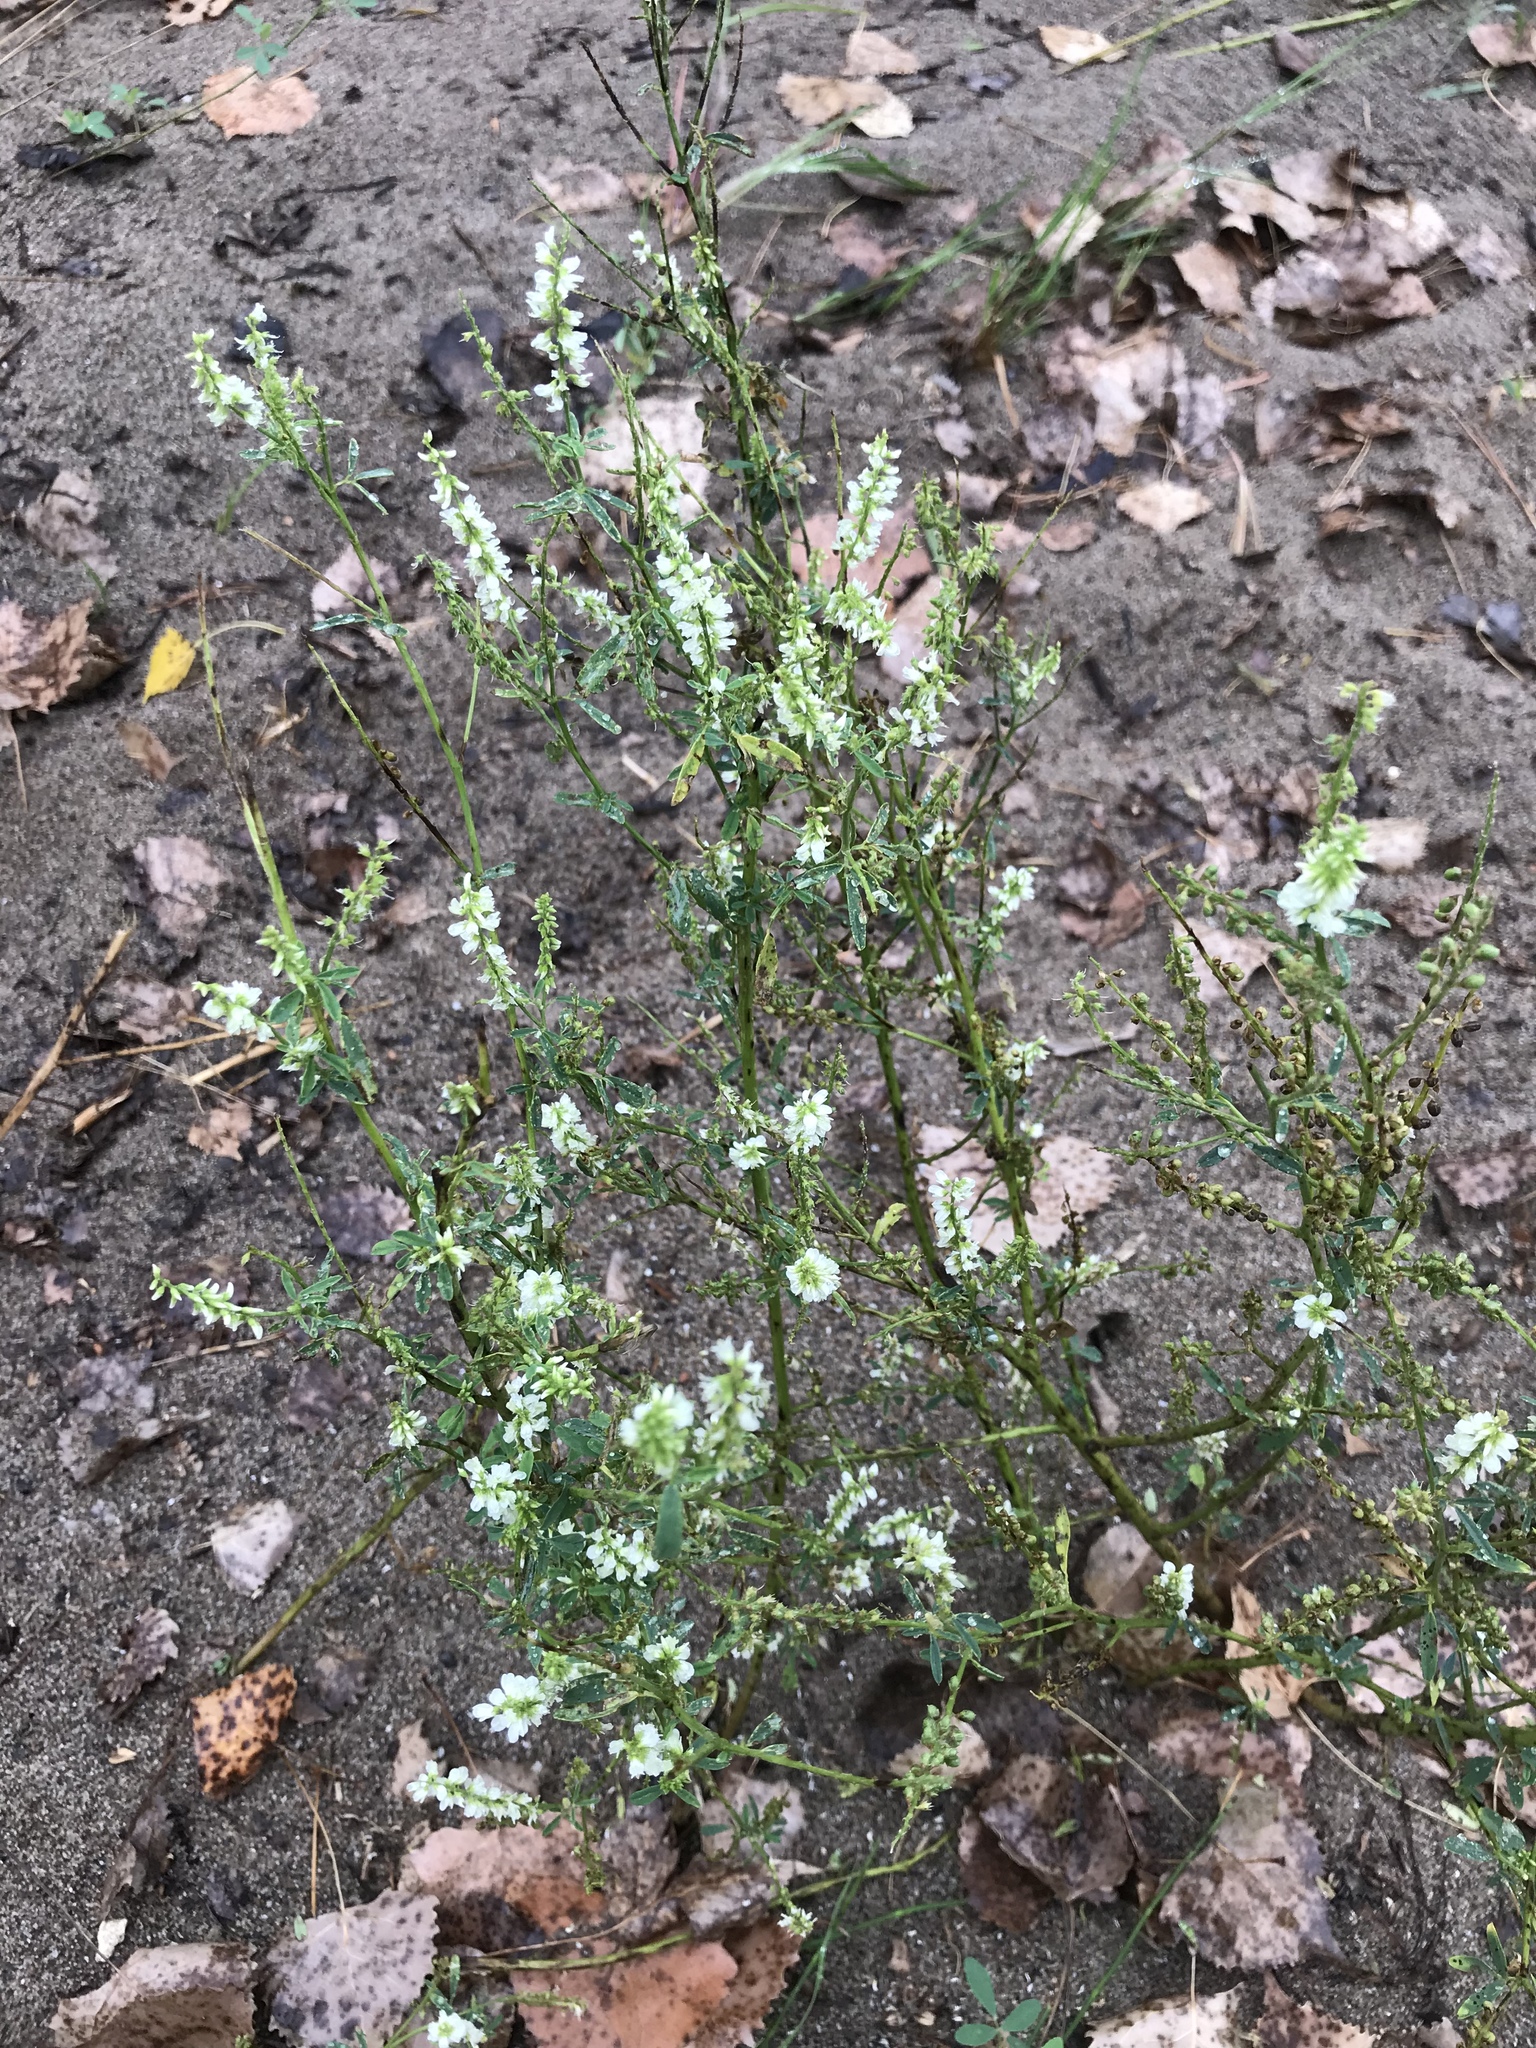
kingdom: Plantae
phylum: Tracheophyta
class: Magnoliopsida
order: Fabales
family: Fabaceae
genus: Melilotus
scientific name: Melilotus albus
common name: White melilot
